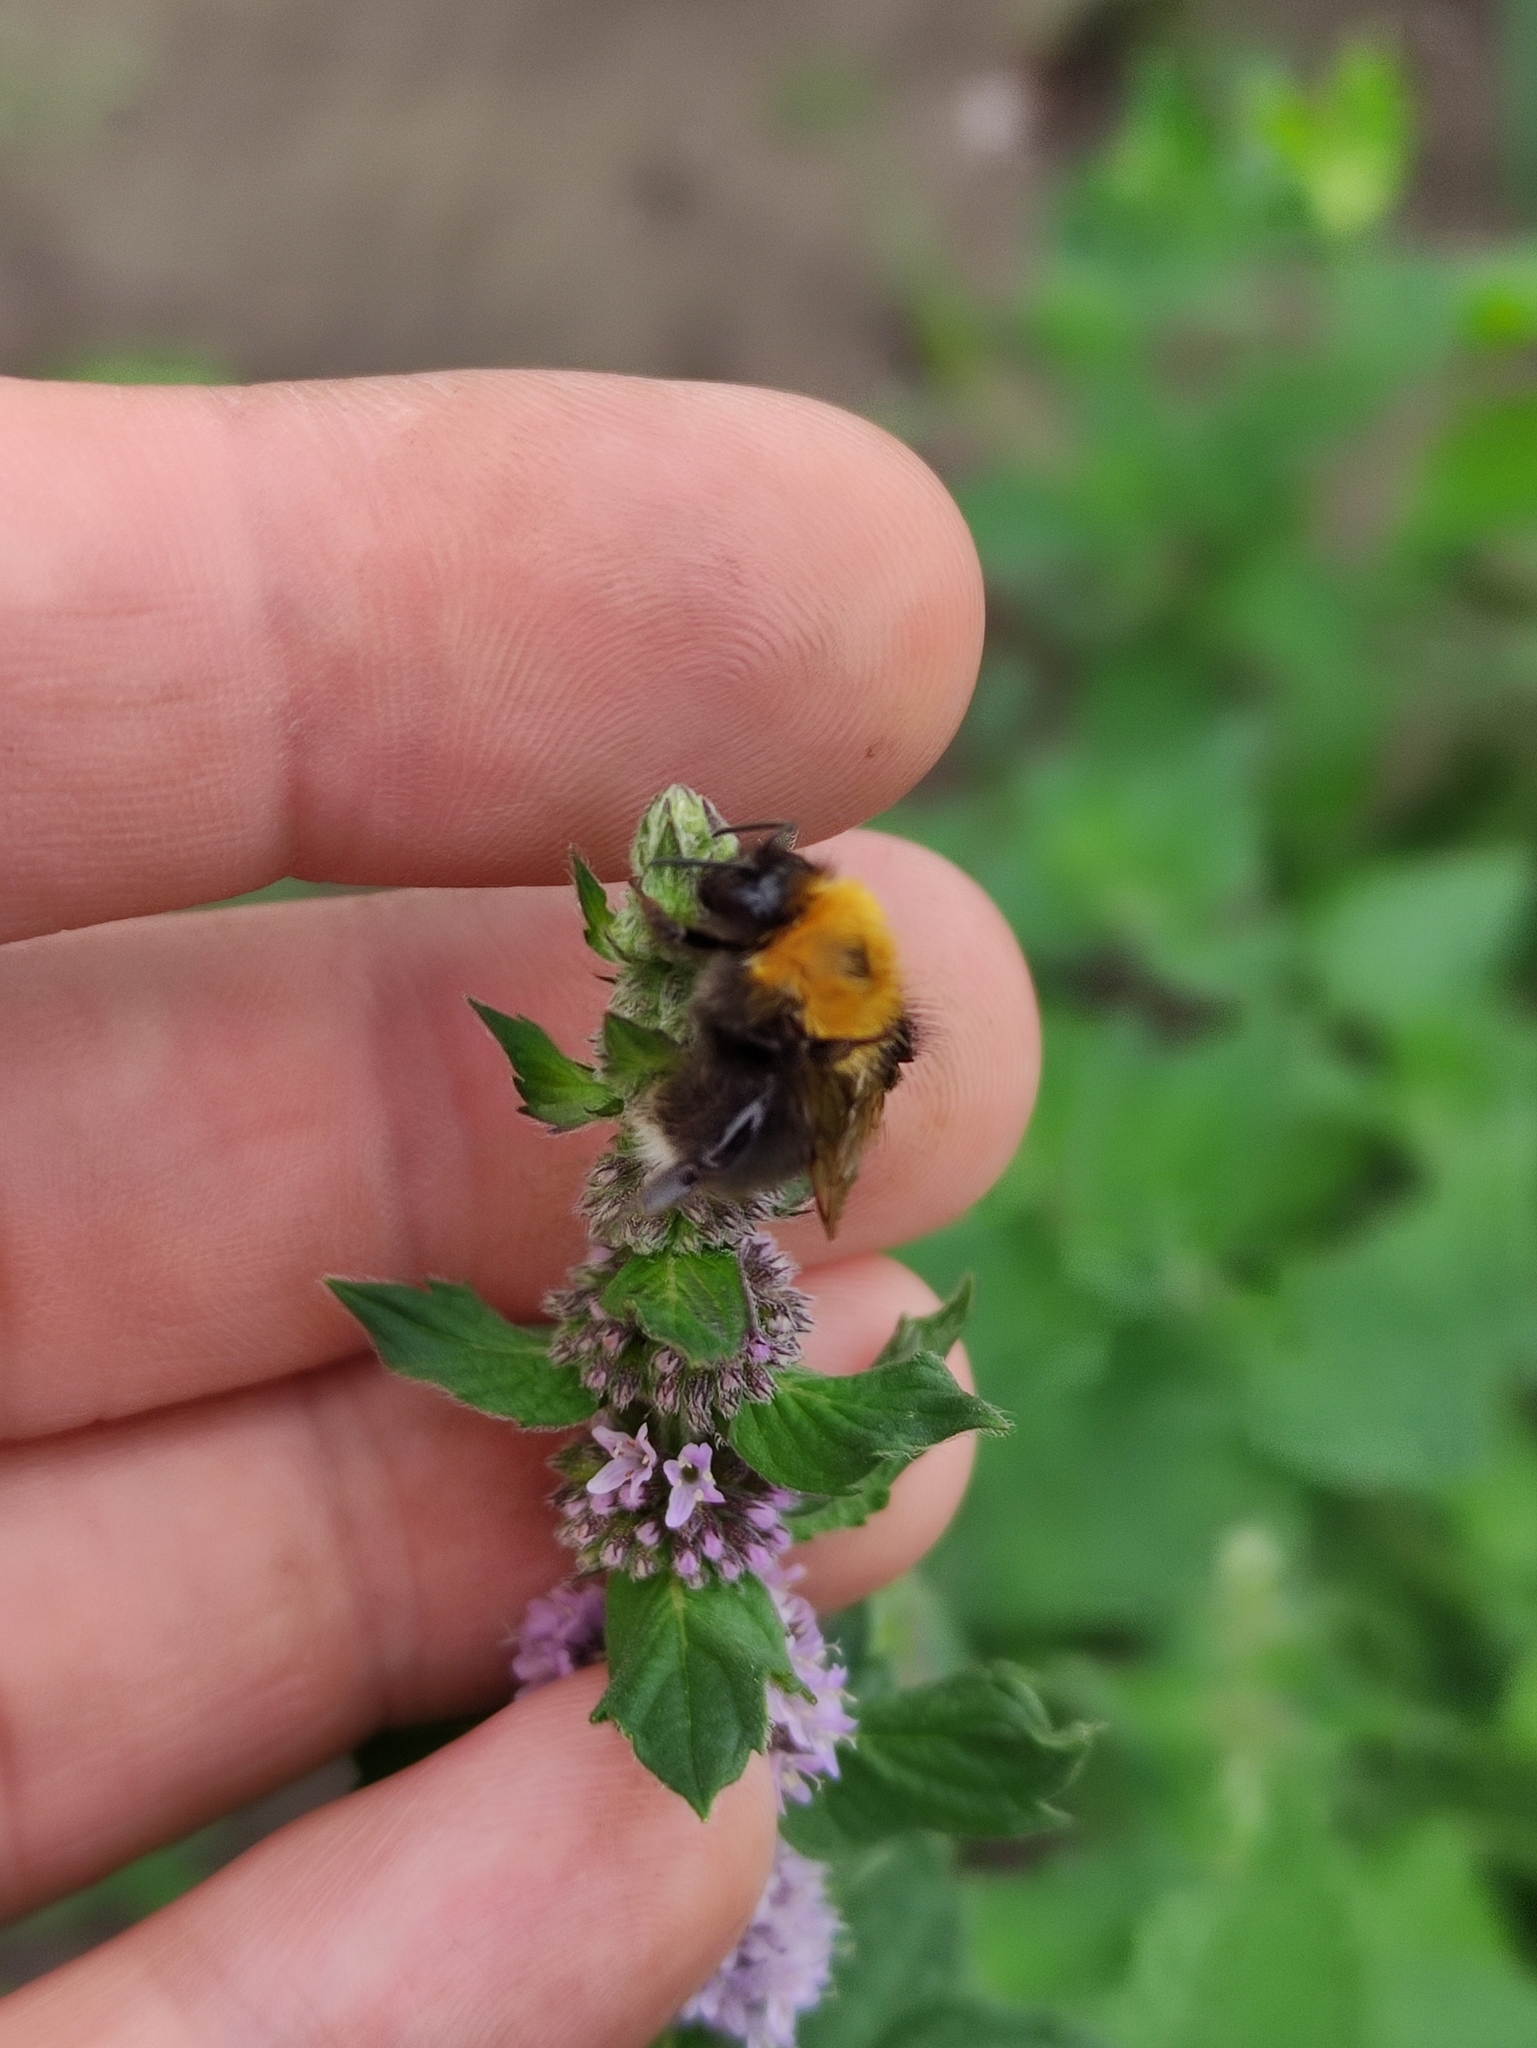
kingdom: Animalia
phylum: Arthropoda
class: Insecta
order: Hymenoptera
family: Apidae
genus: Bombus
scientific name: Bombus hypnorum
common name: New garden bumblebee
